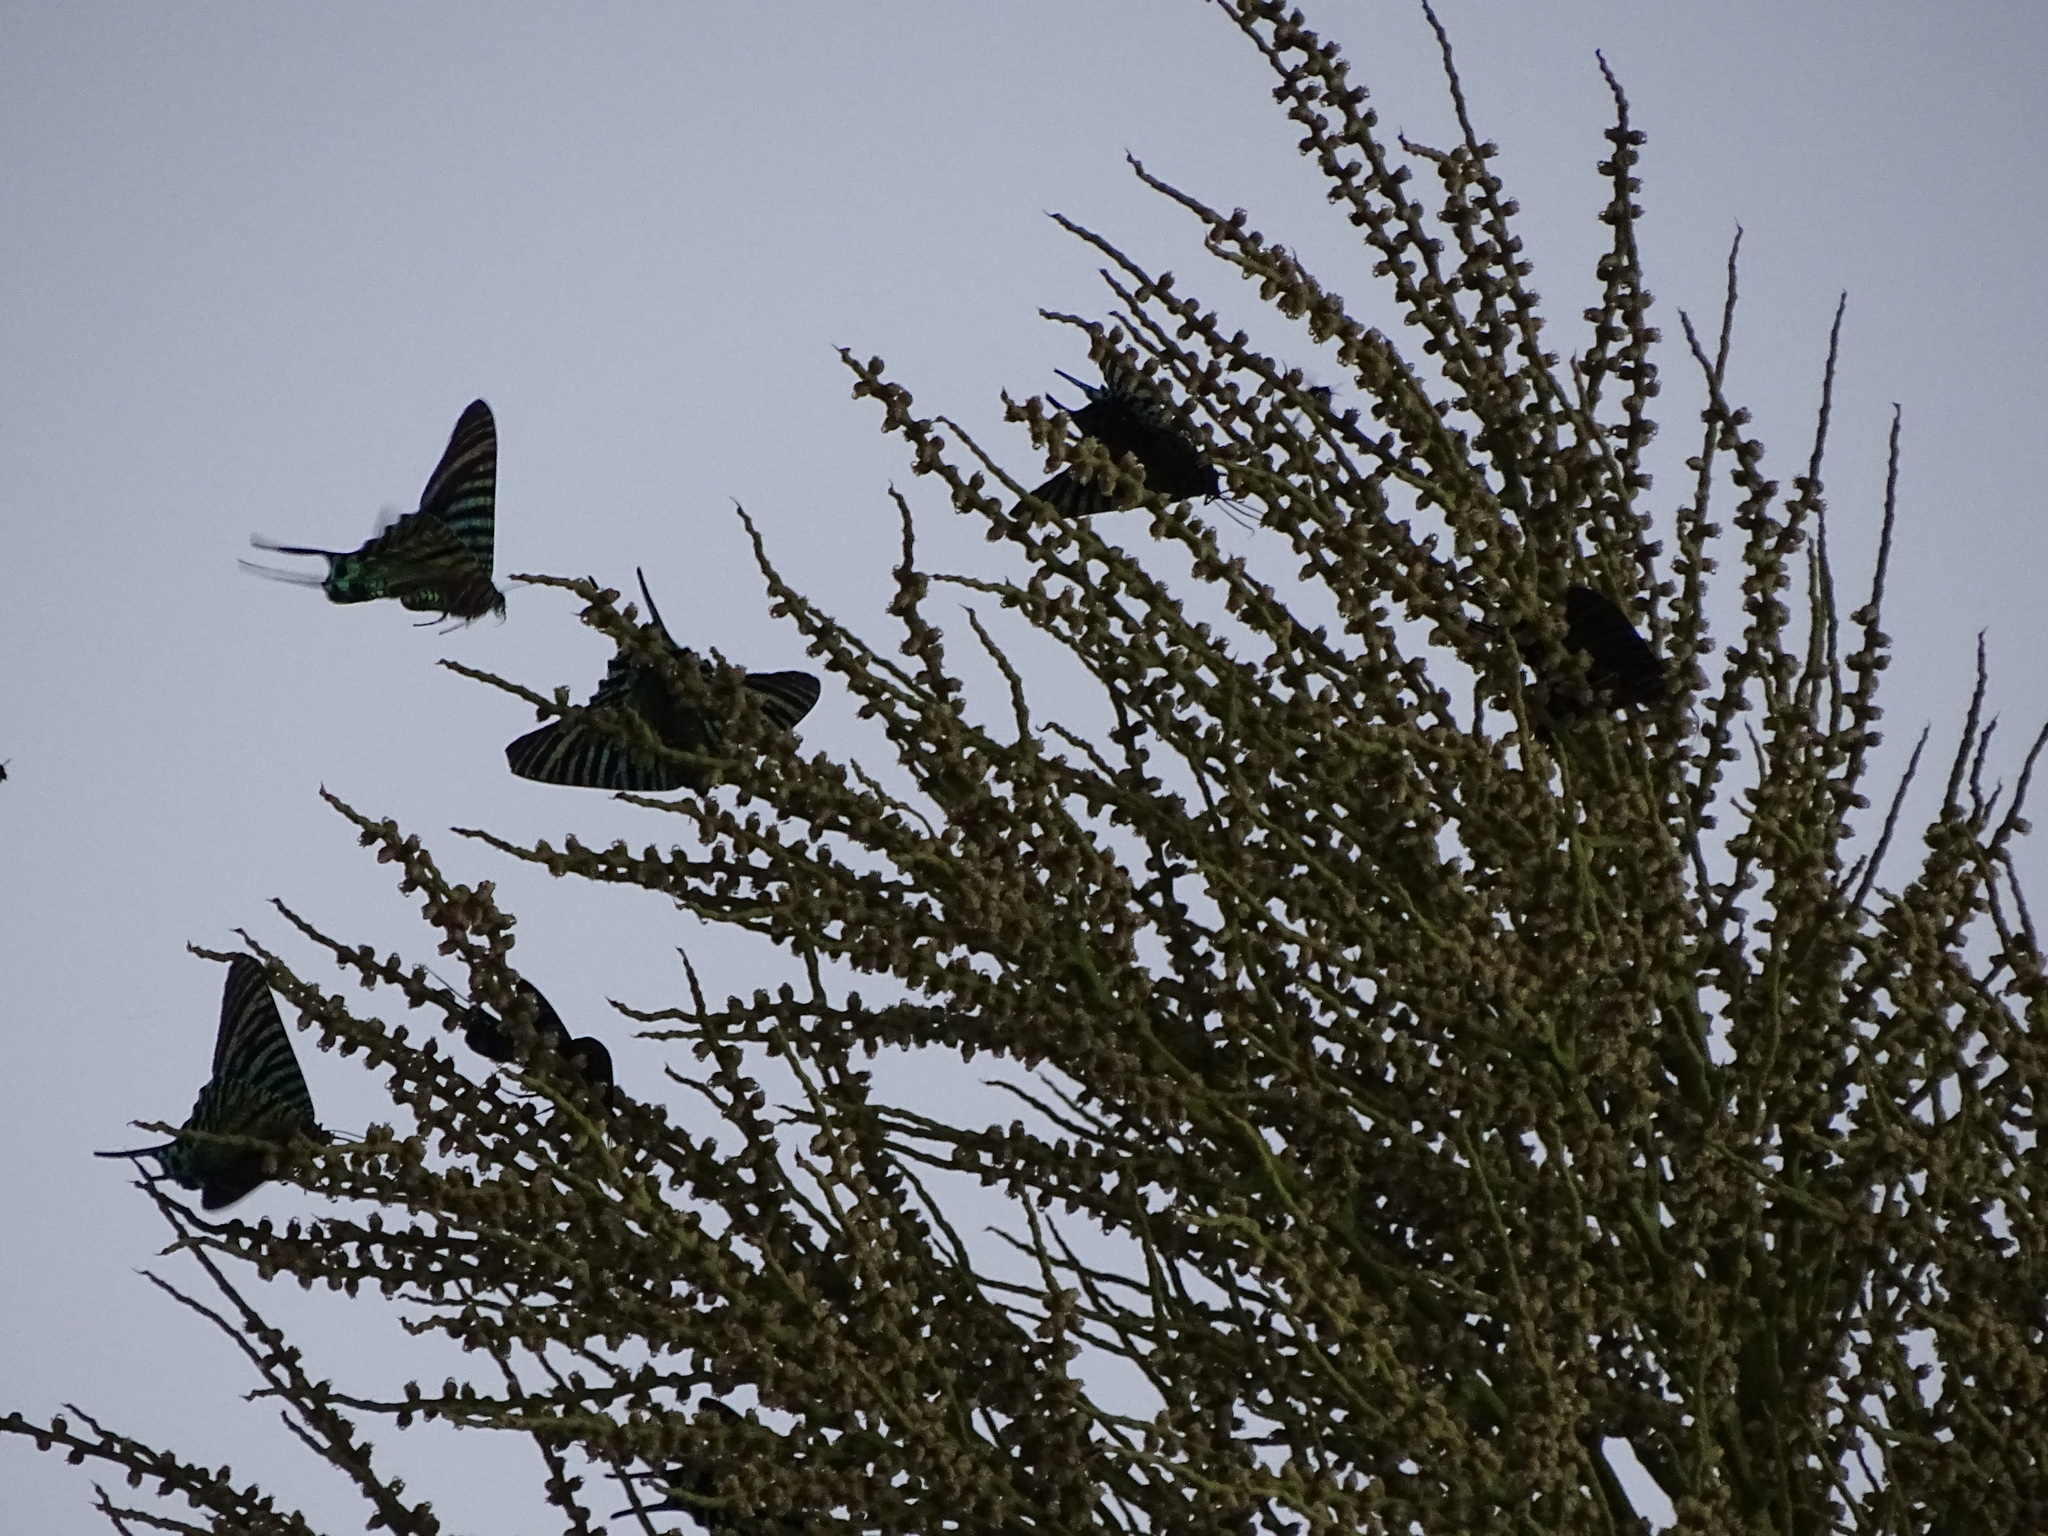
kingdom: Animalia
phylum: Arthropoda
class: Insecta
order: Lepidoptera
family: Uraniidae
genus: Urania
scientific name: Urania boisduvalii
